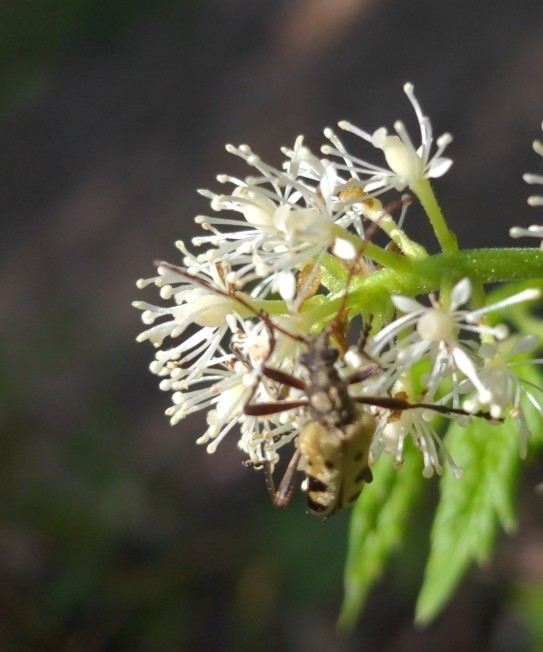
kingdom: Animalia
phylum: Arthropoda
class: Insecta
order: Coleoptera
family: Cerambycidae
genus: Evodinus
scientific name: Evodinus monticola
